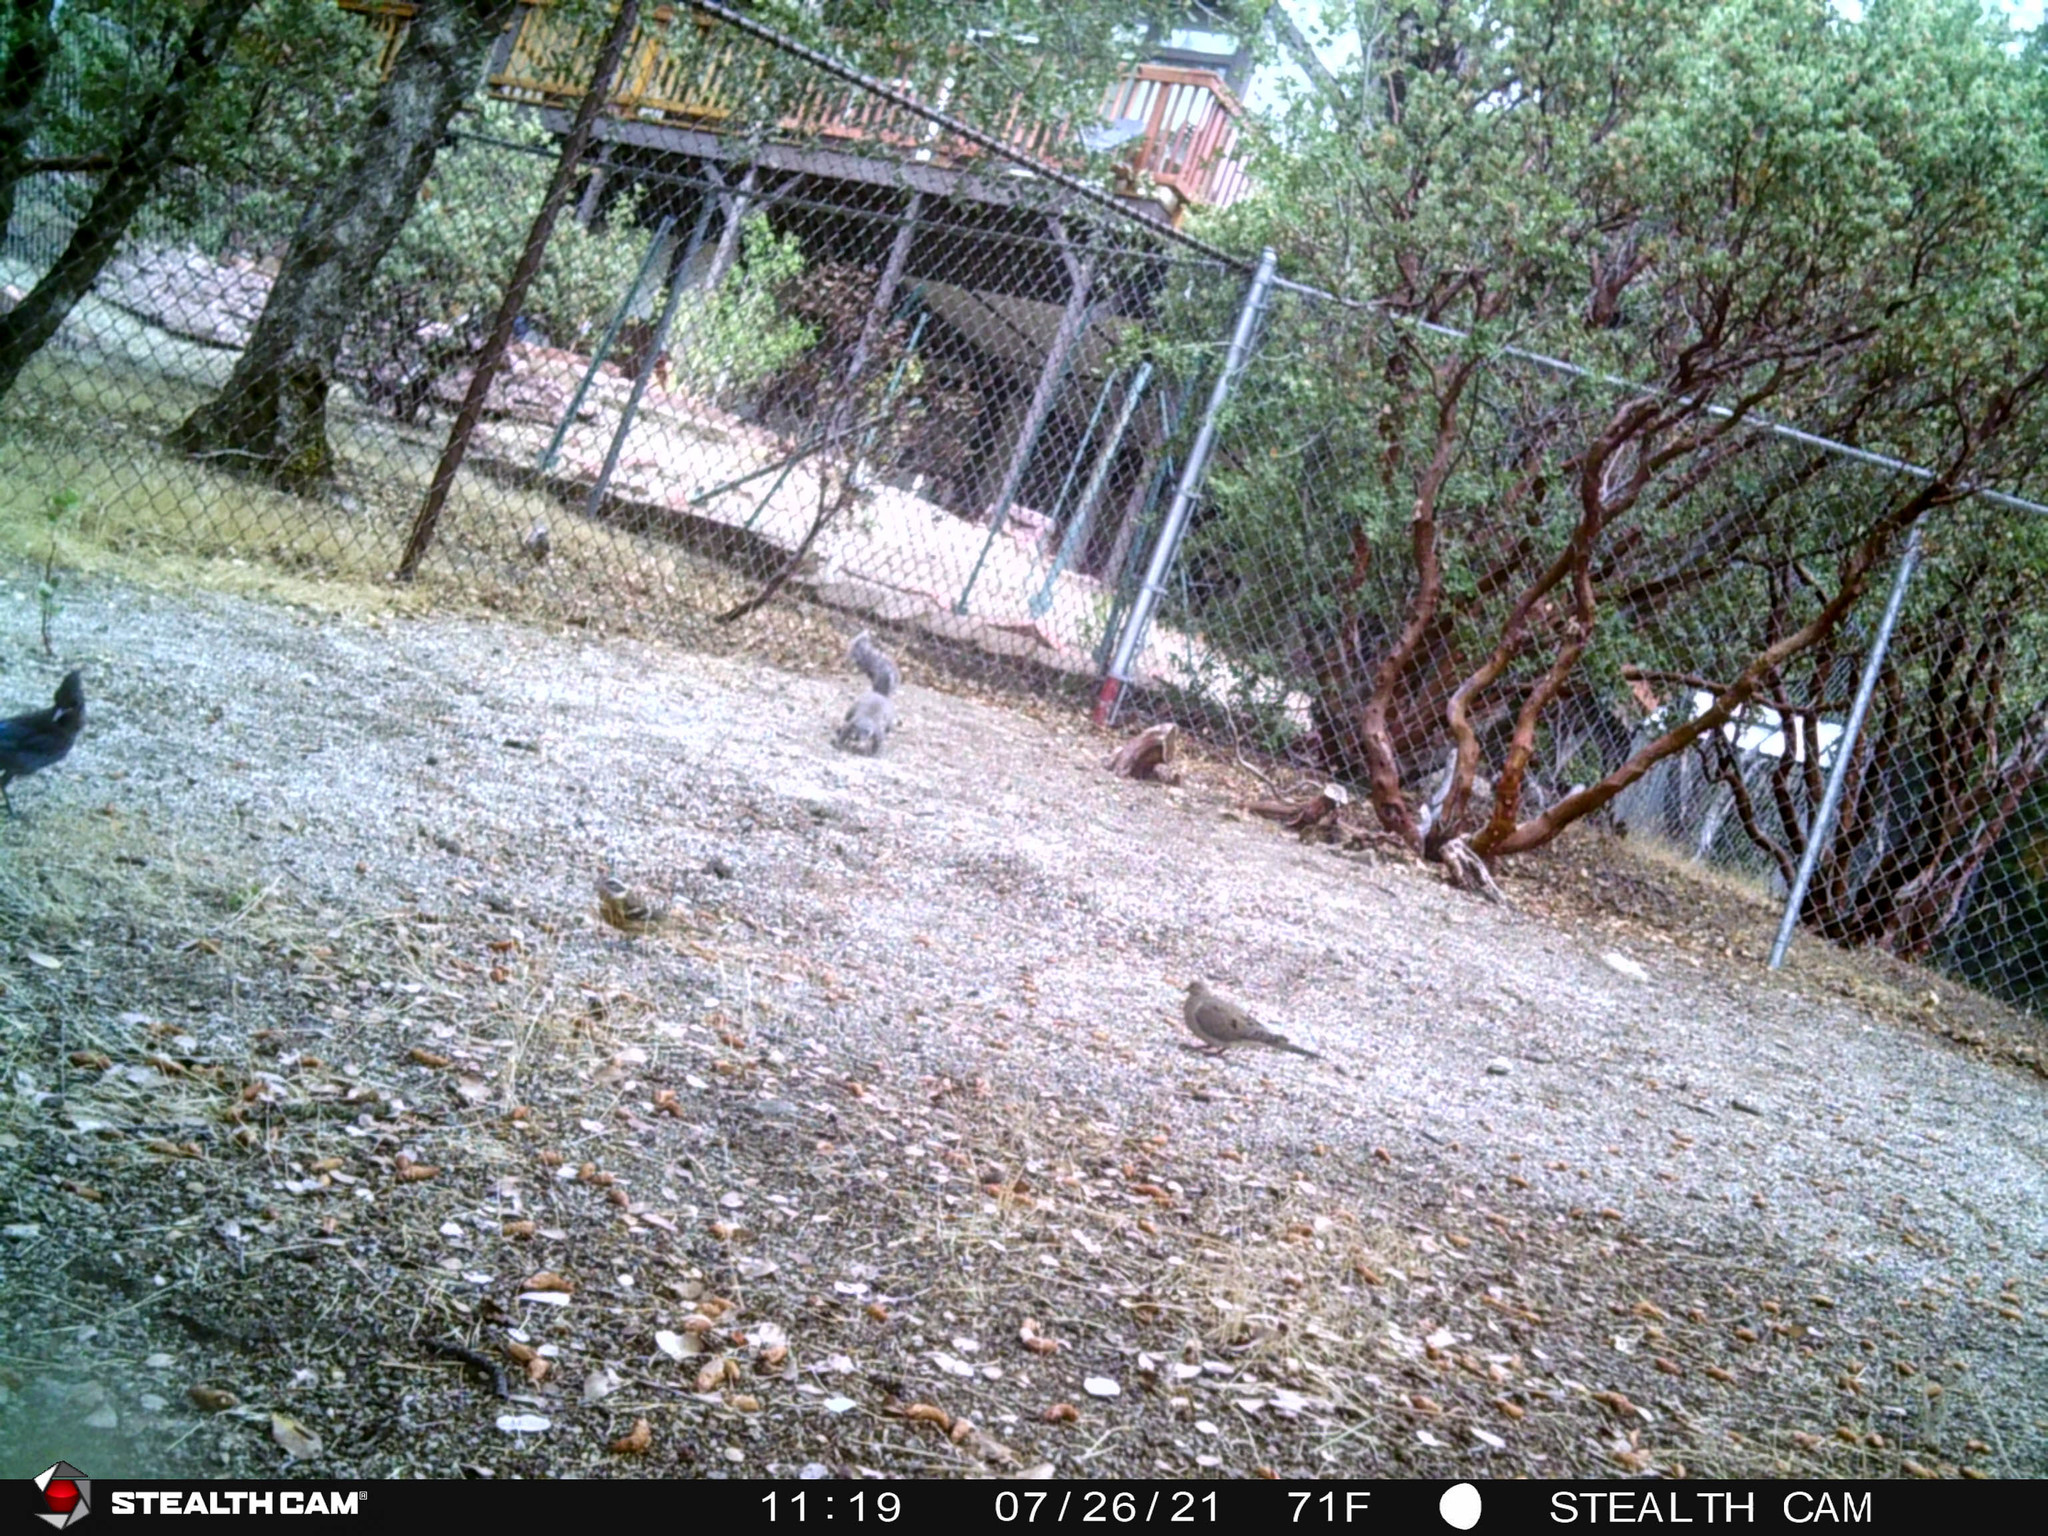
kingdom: Animalia
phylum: Chordata
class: Aves
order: Columbiformes
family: Columbidae
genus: Zenaida
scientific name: Zenaida macroura
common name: Mourning dove
